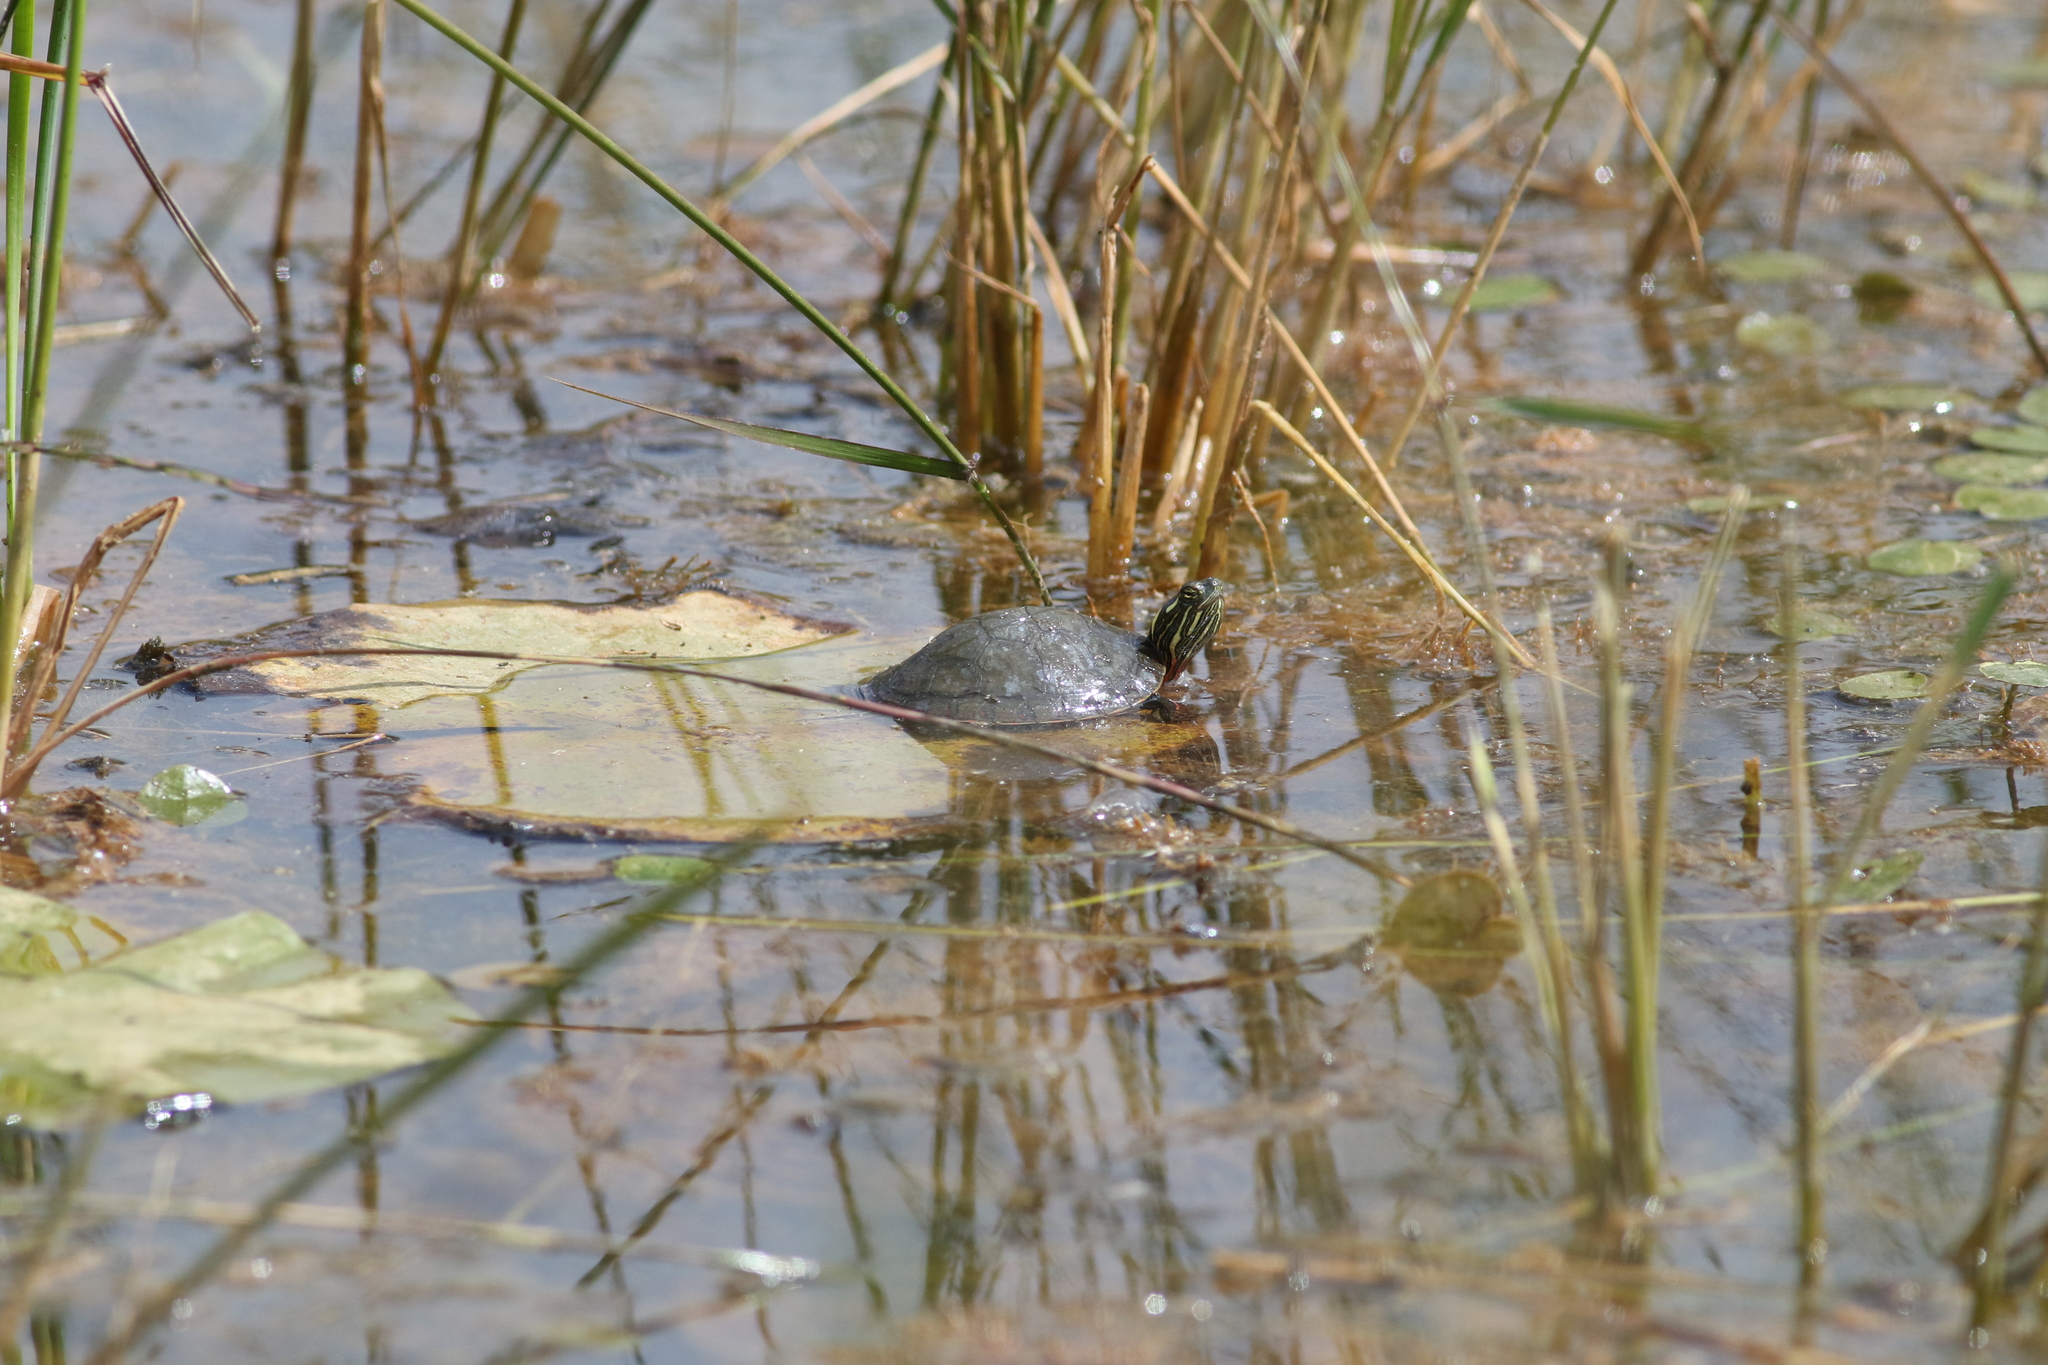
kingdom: Animalia
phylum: Chordata
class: Testudines
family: Emydidae
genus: Chrysemys
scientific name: Chrysemys picta
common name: Painted turtle
